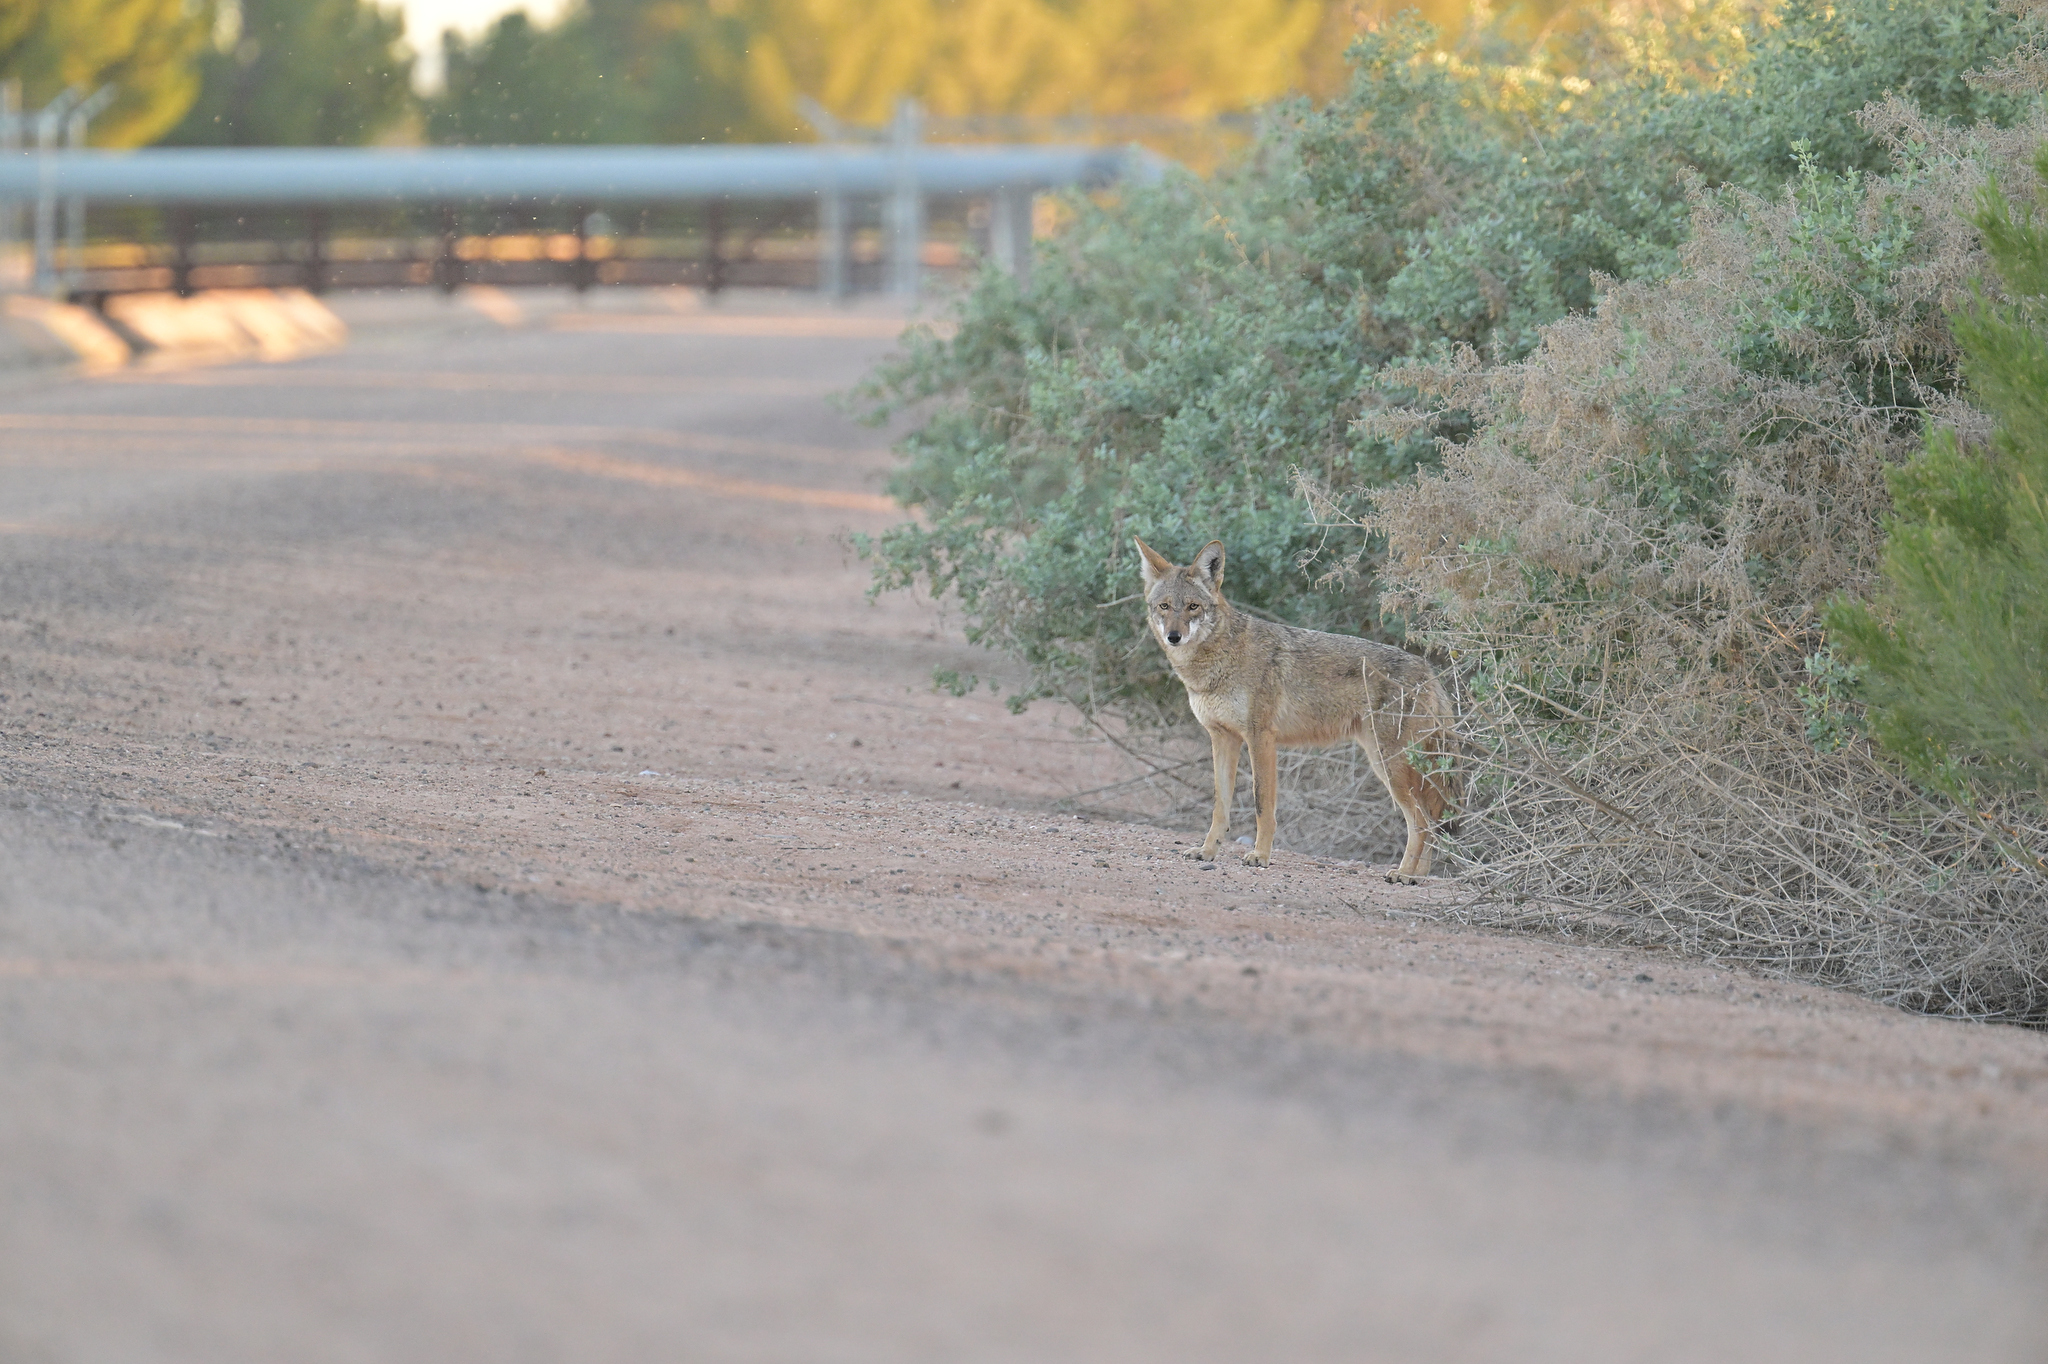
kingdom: Animalia
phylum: Chordata
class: Mammalia
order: Carnivora
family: Canidae
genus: Canis
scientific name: Canis latrans
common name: Coyote
